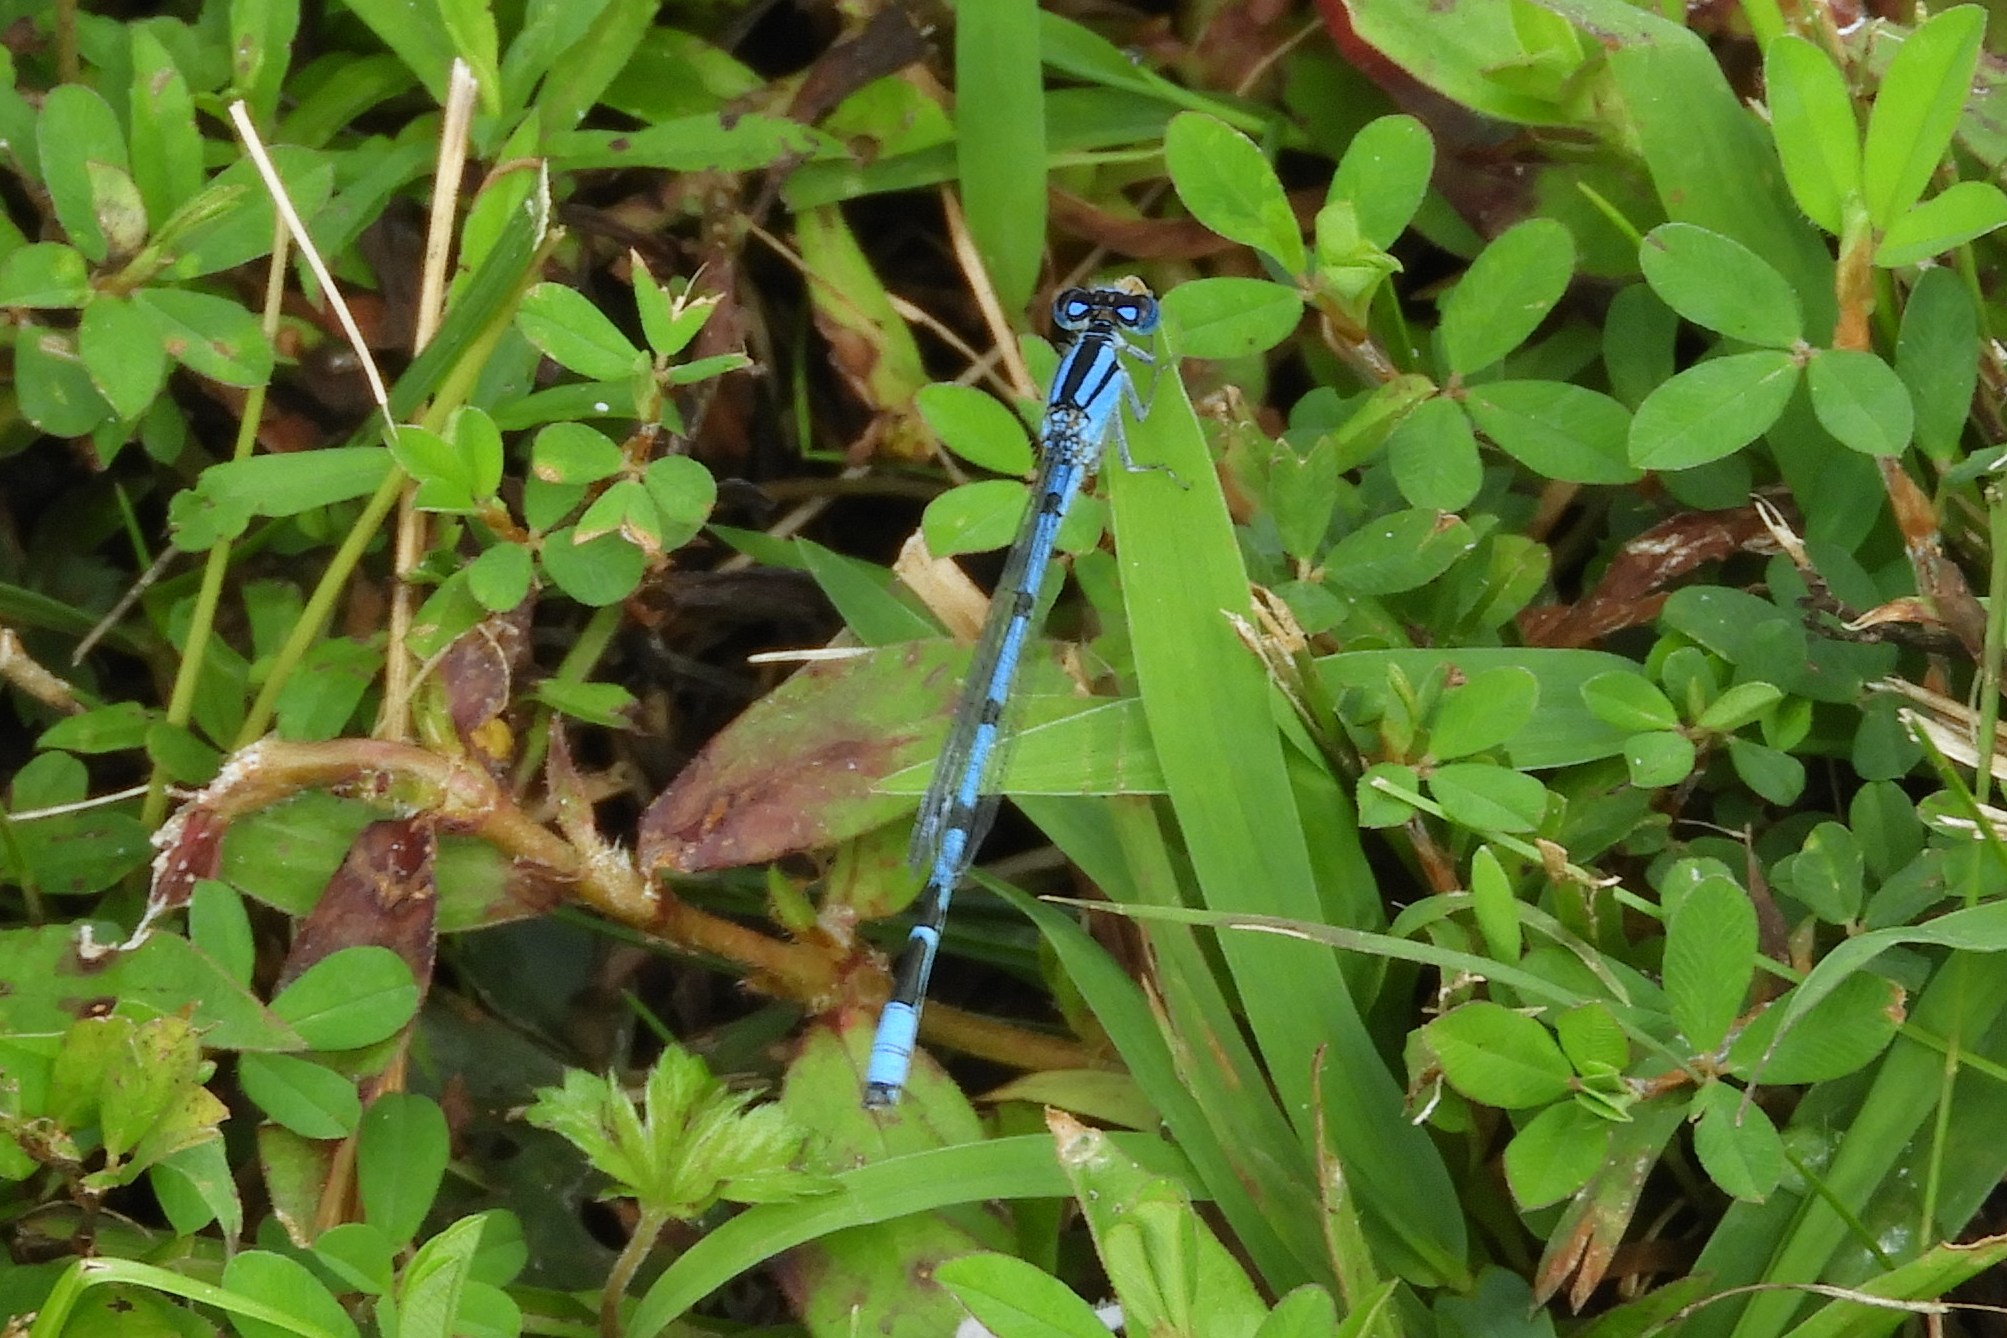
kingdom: Animalia
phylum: Arthropoda
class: Insecta
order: Odonata
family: Coenagrionidae
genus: Enallagma
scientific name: Enallagma
